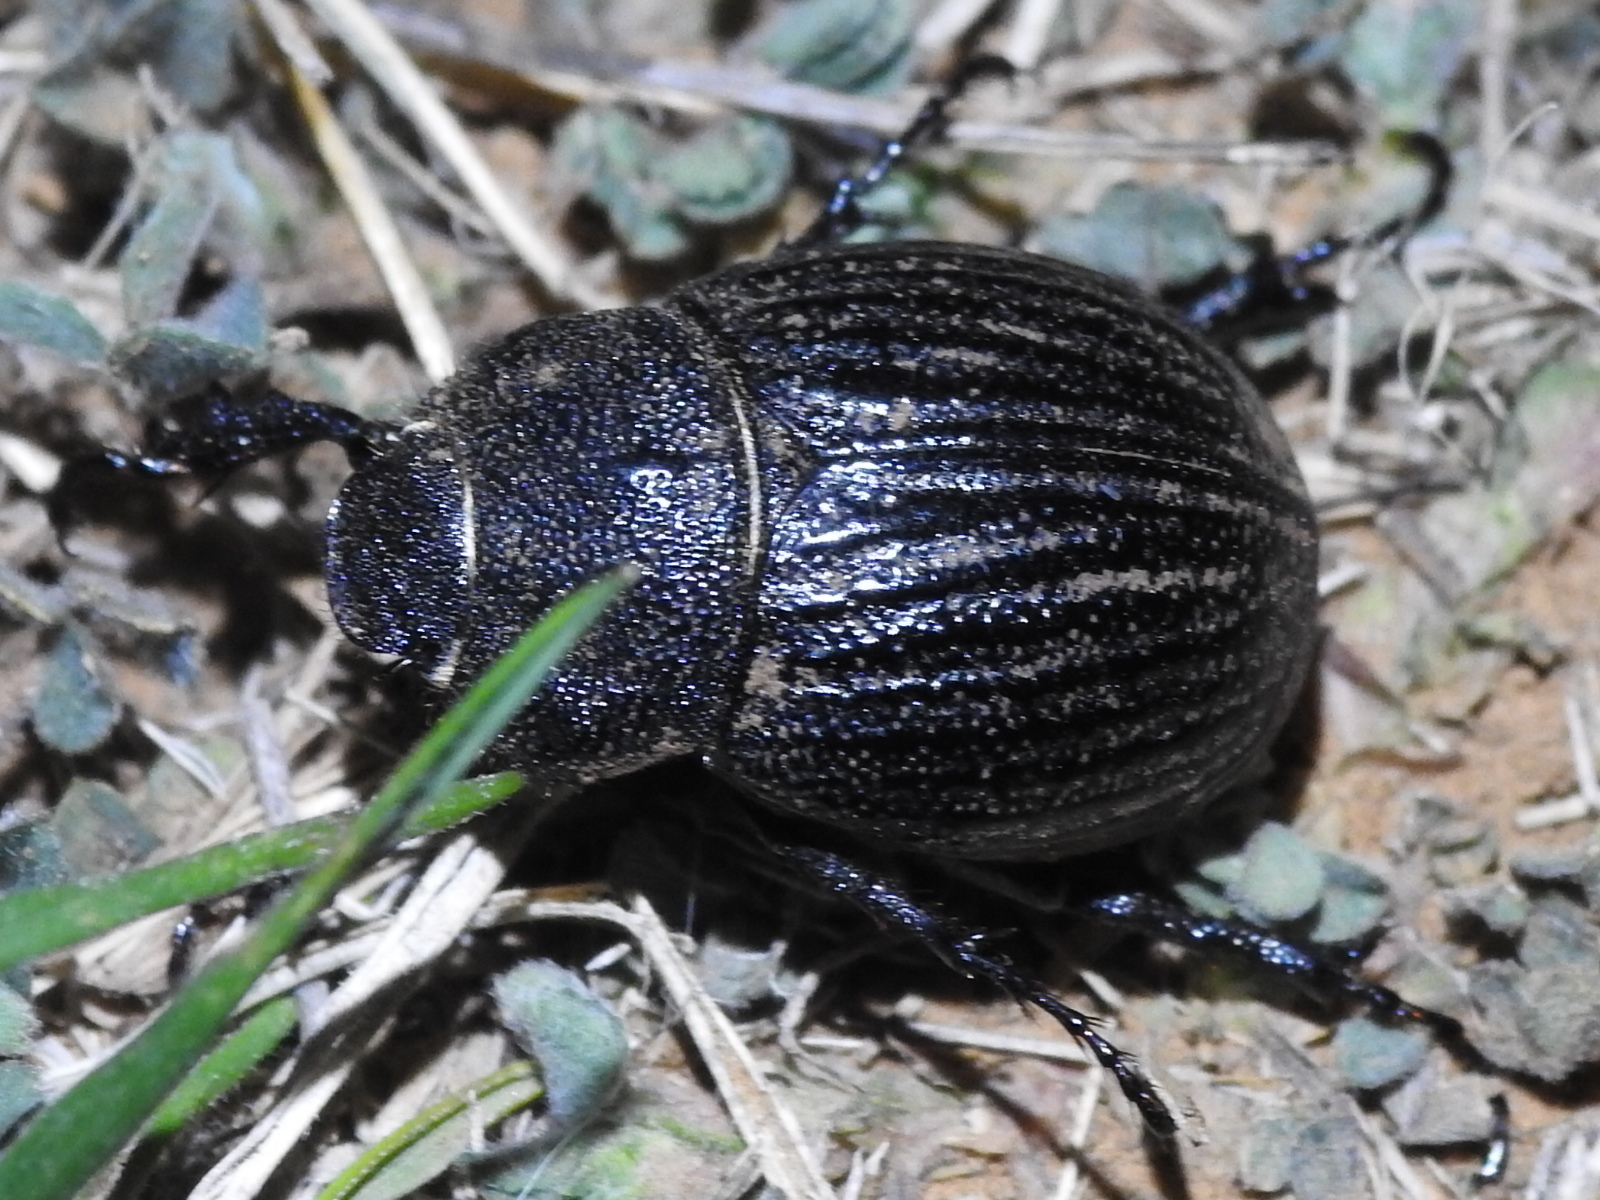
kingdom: Animalia
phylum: Arthropoda
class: Insecta
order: Coleoptera
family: Scarabaeidae
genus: Phyllophaga
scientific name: Phyllophaga cribrosa
